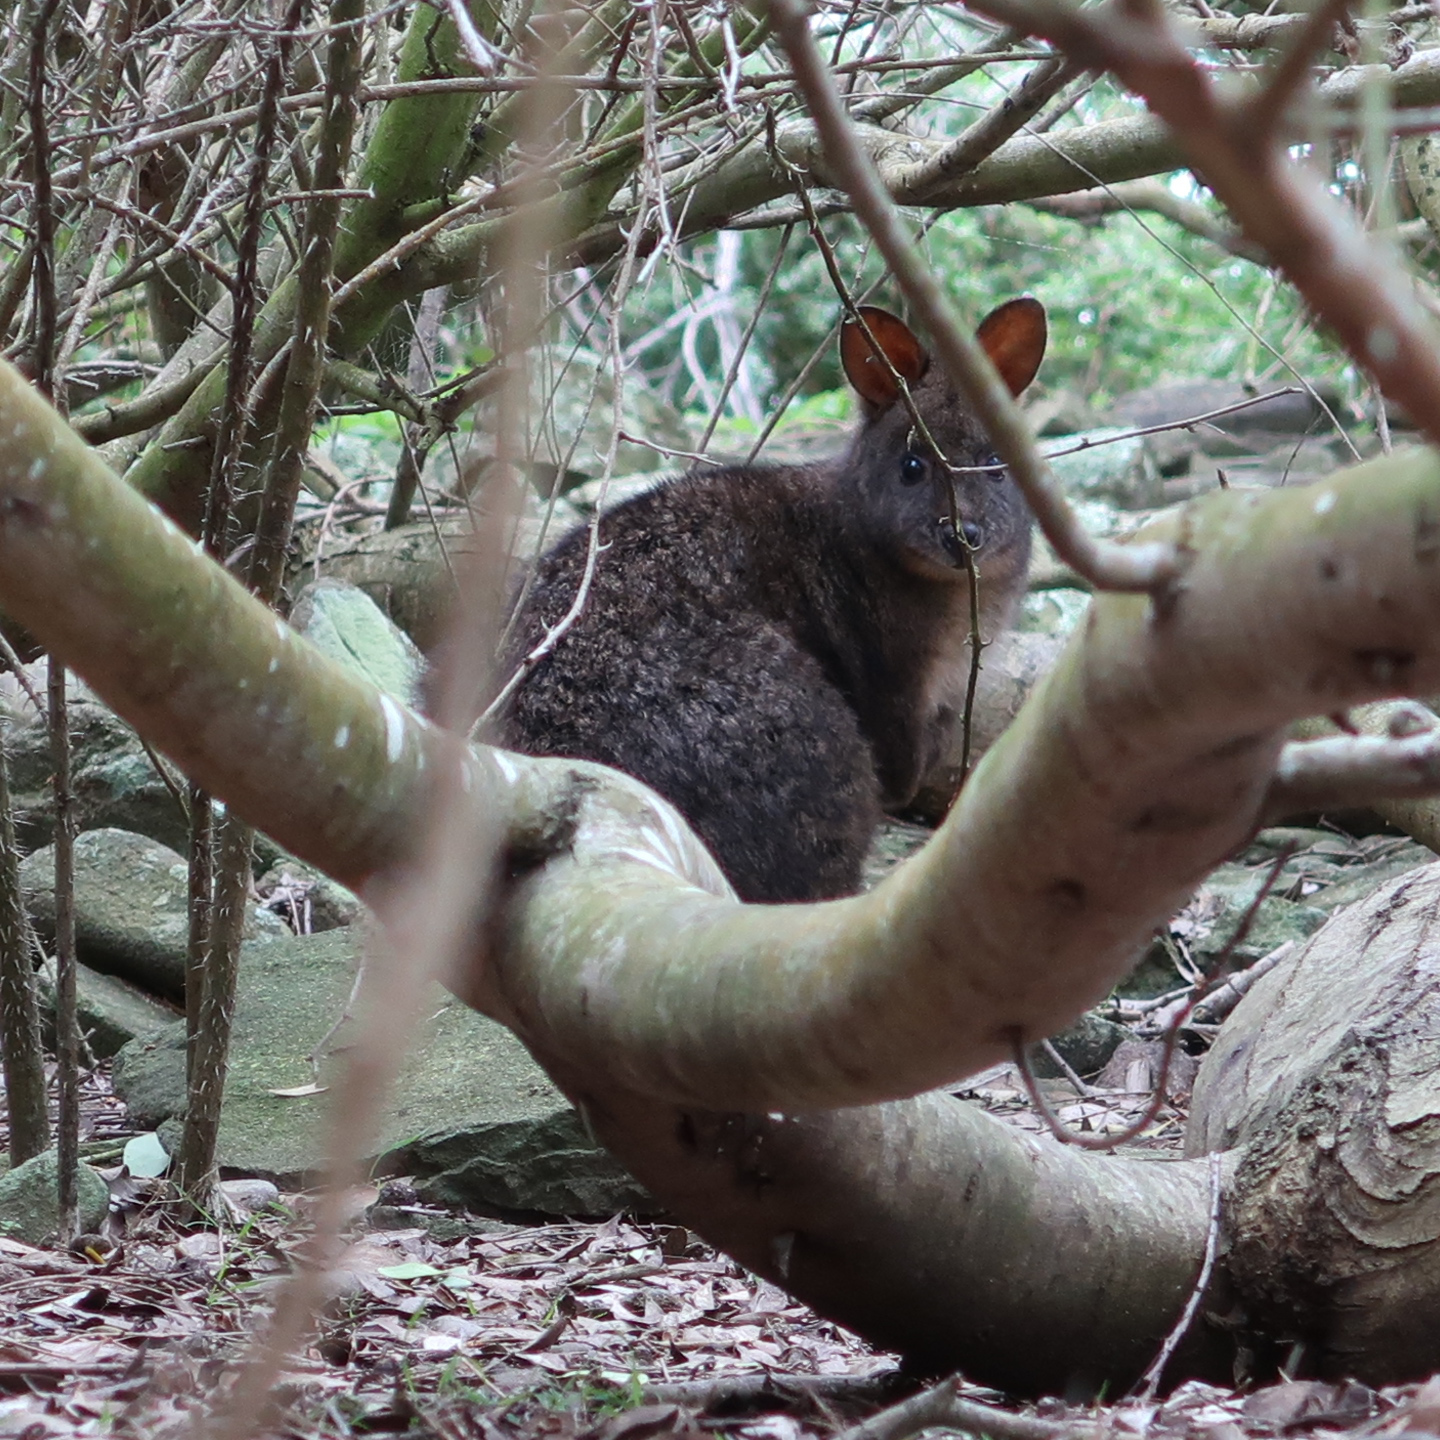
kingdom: Animalia
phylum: Chordata
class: Mammalia
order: Diprotodontia
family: Macropodidae
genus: Thylogale
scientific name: Thylogale billardierii
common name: Tasmanian pademelon
